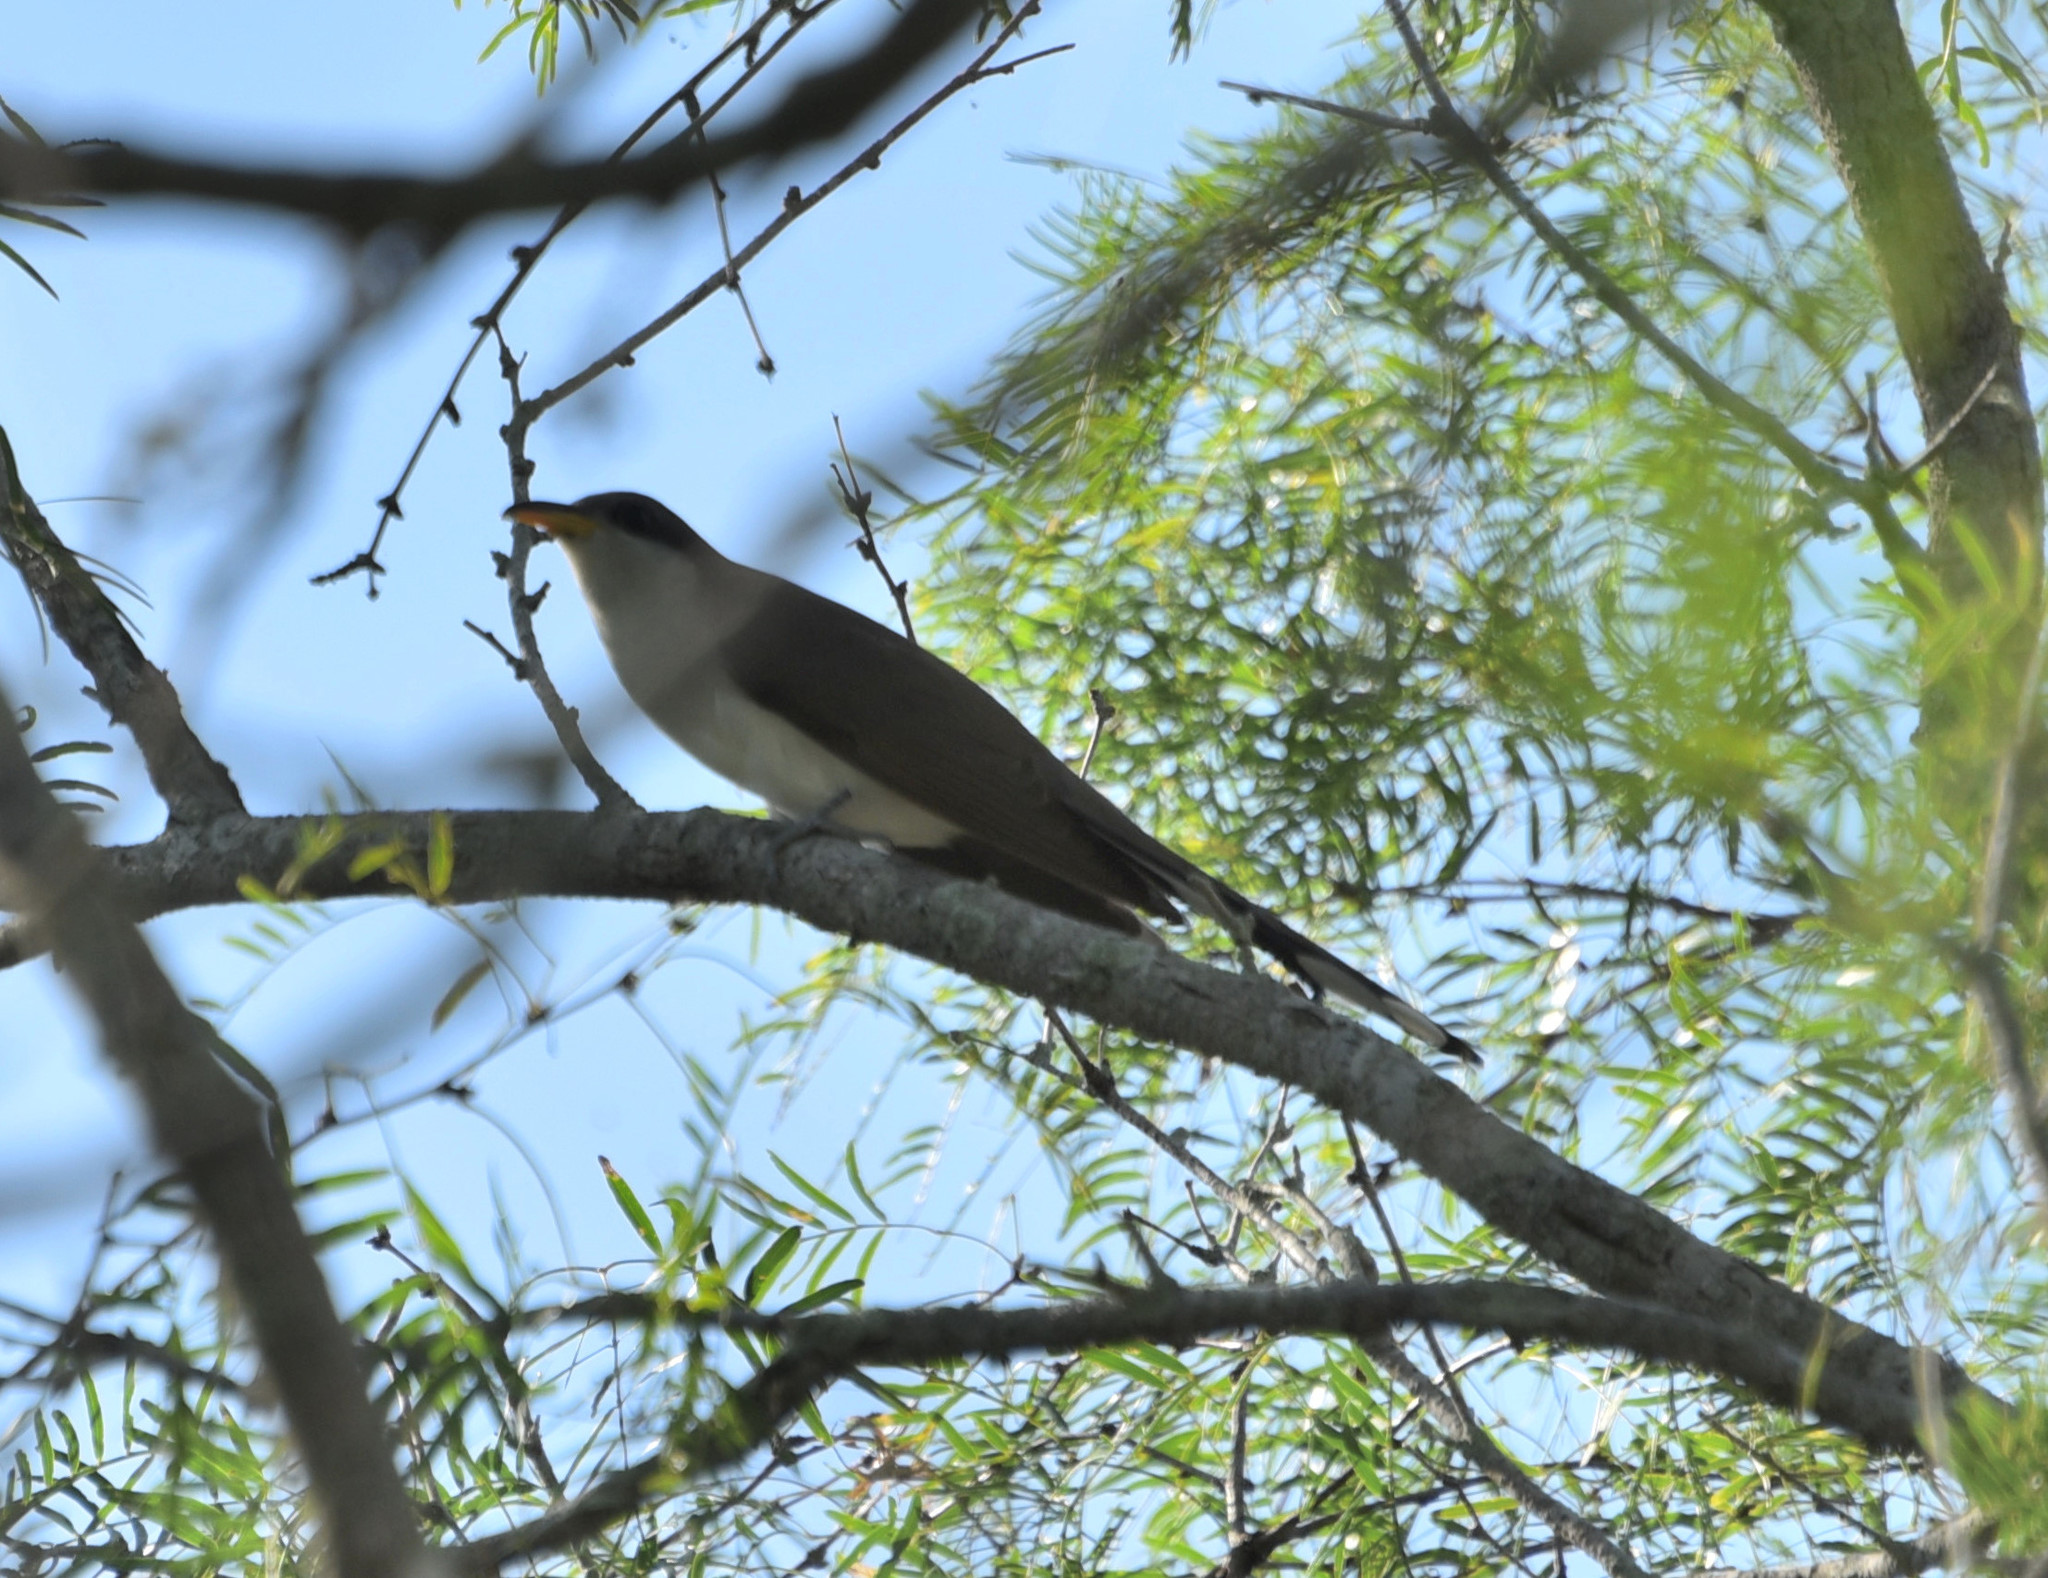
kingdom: Animalia
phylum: Chordata
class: Aves
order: Cuculiformes
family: Cuculidae
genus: Coccyzus
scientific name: Coccyzus americanus
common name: Yellow-billed cuckoo
